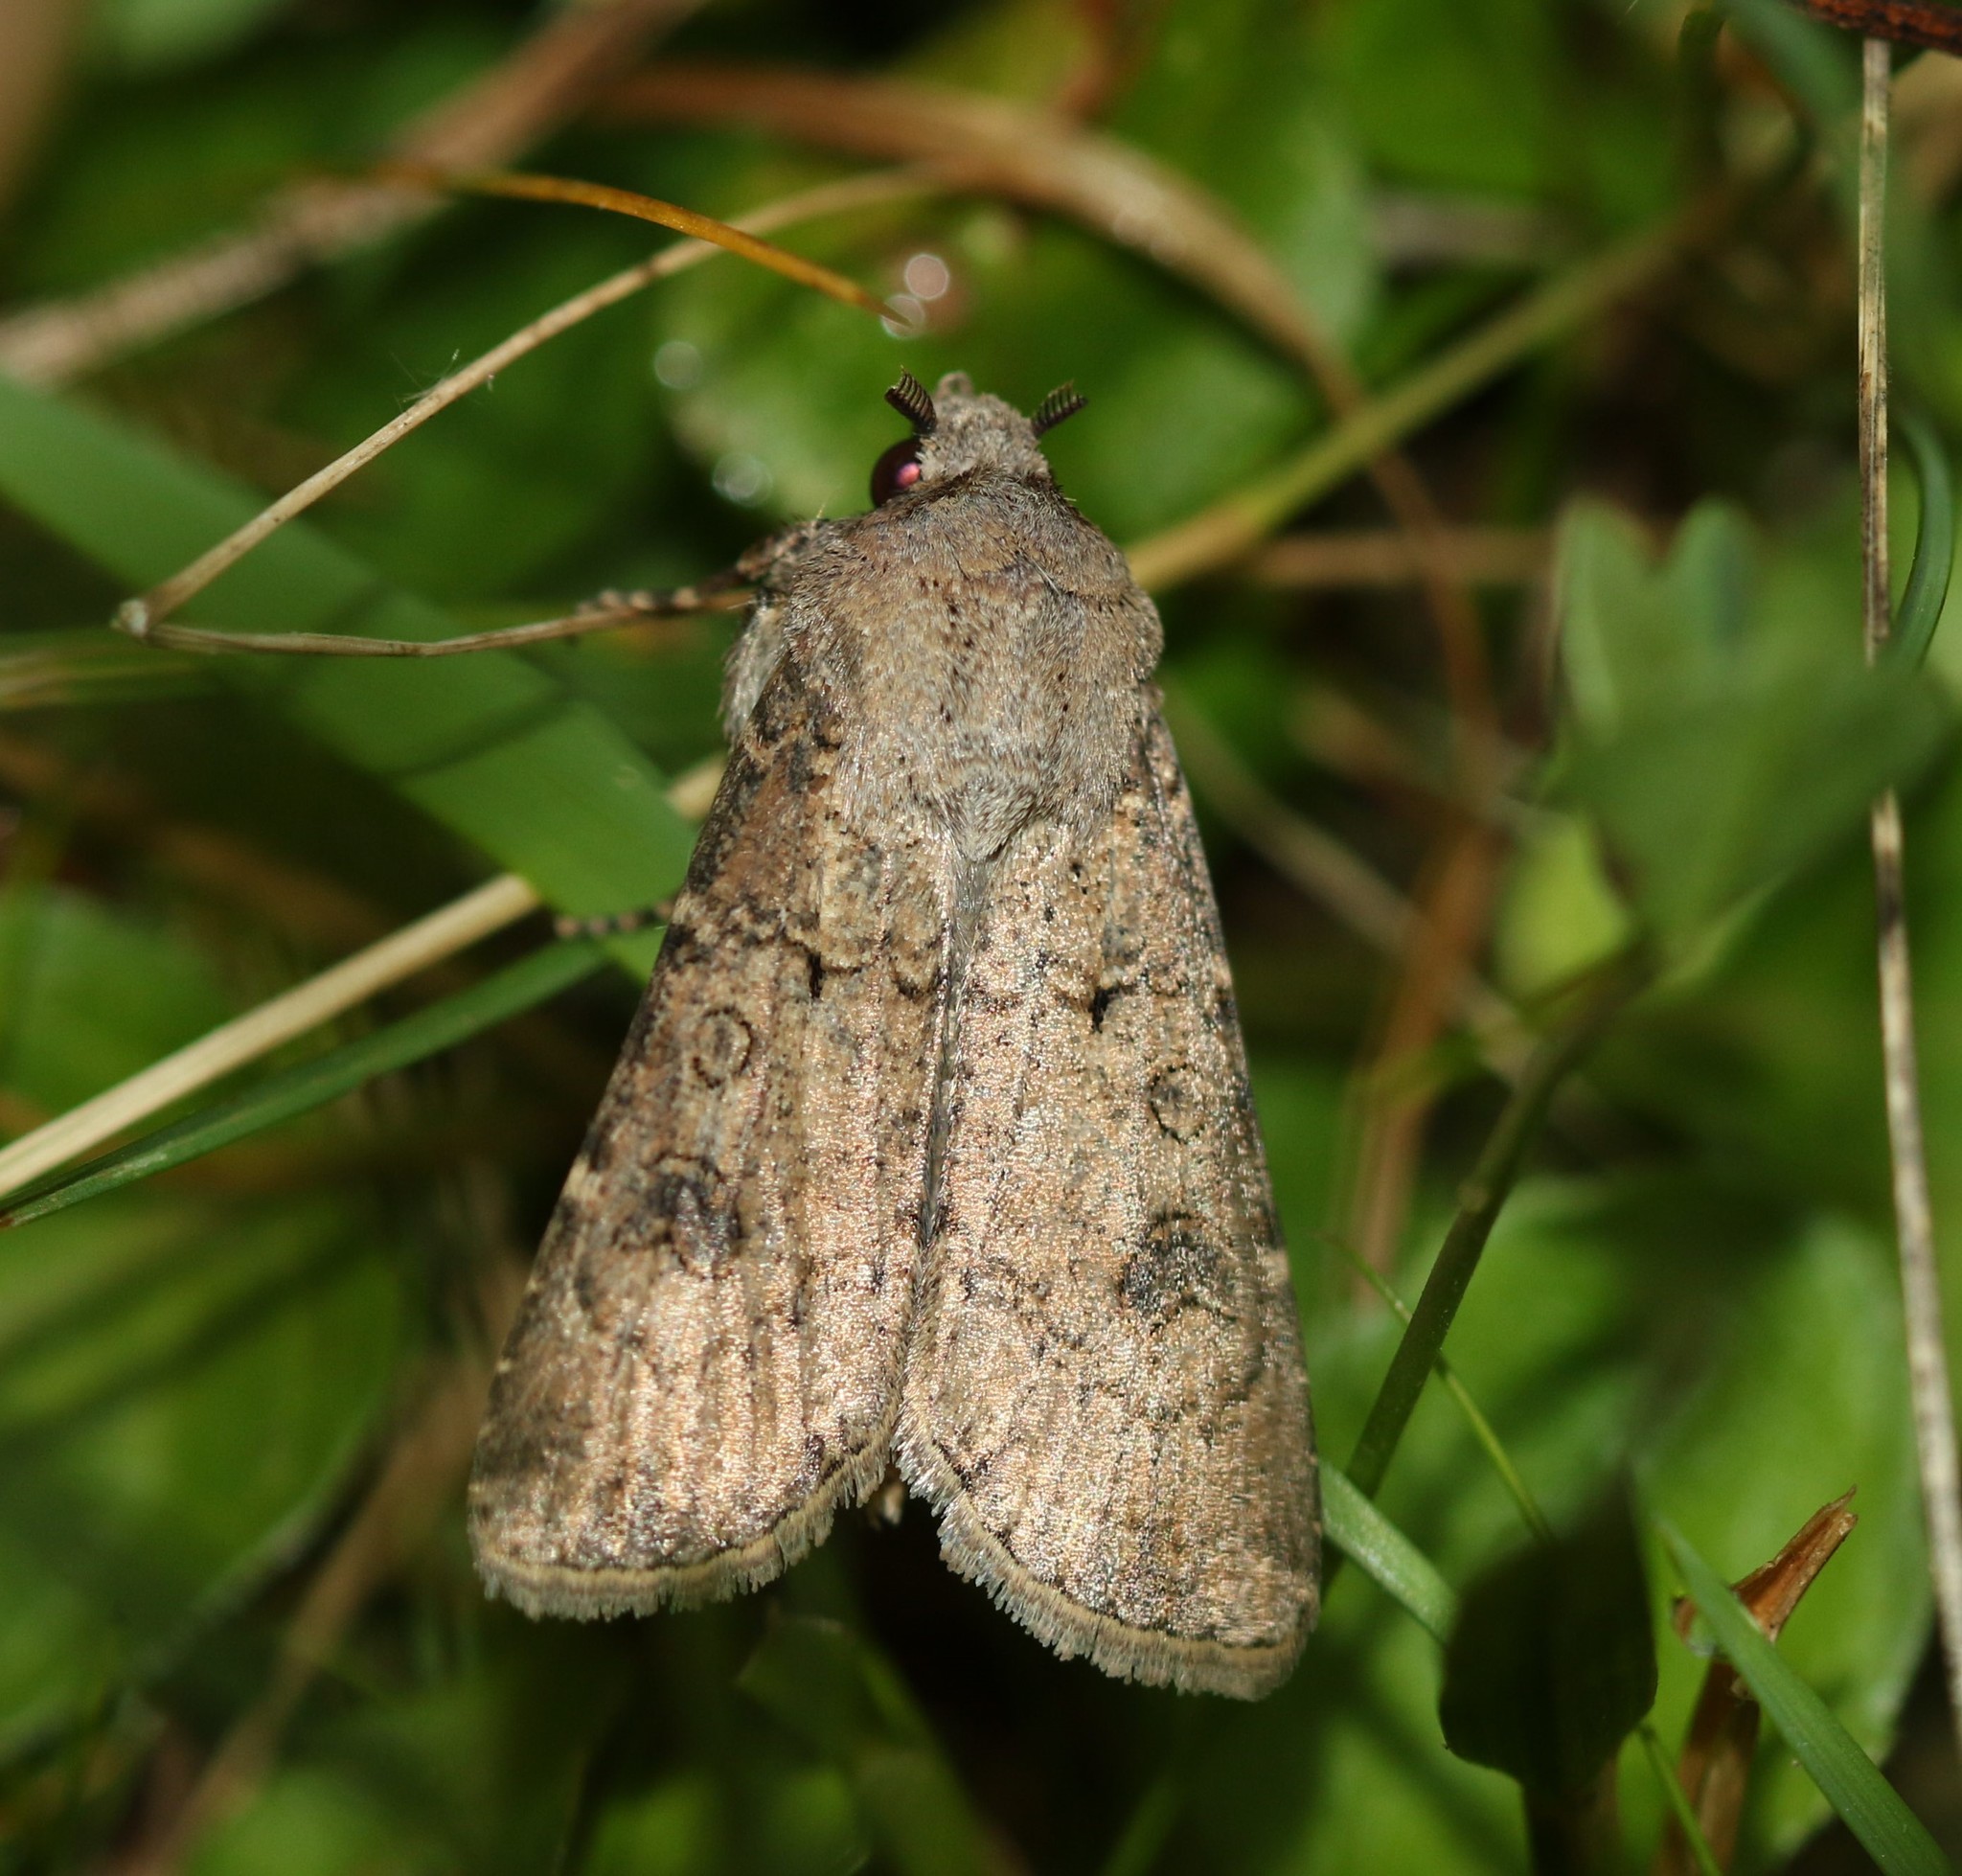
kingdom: Animalia
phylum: Arthropoda
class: Insecta
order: Lepidoptera
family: Noctuidae
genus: Agrotis
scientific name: Agrotis segetum
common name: Turnip moth
